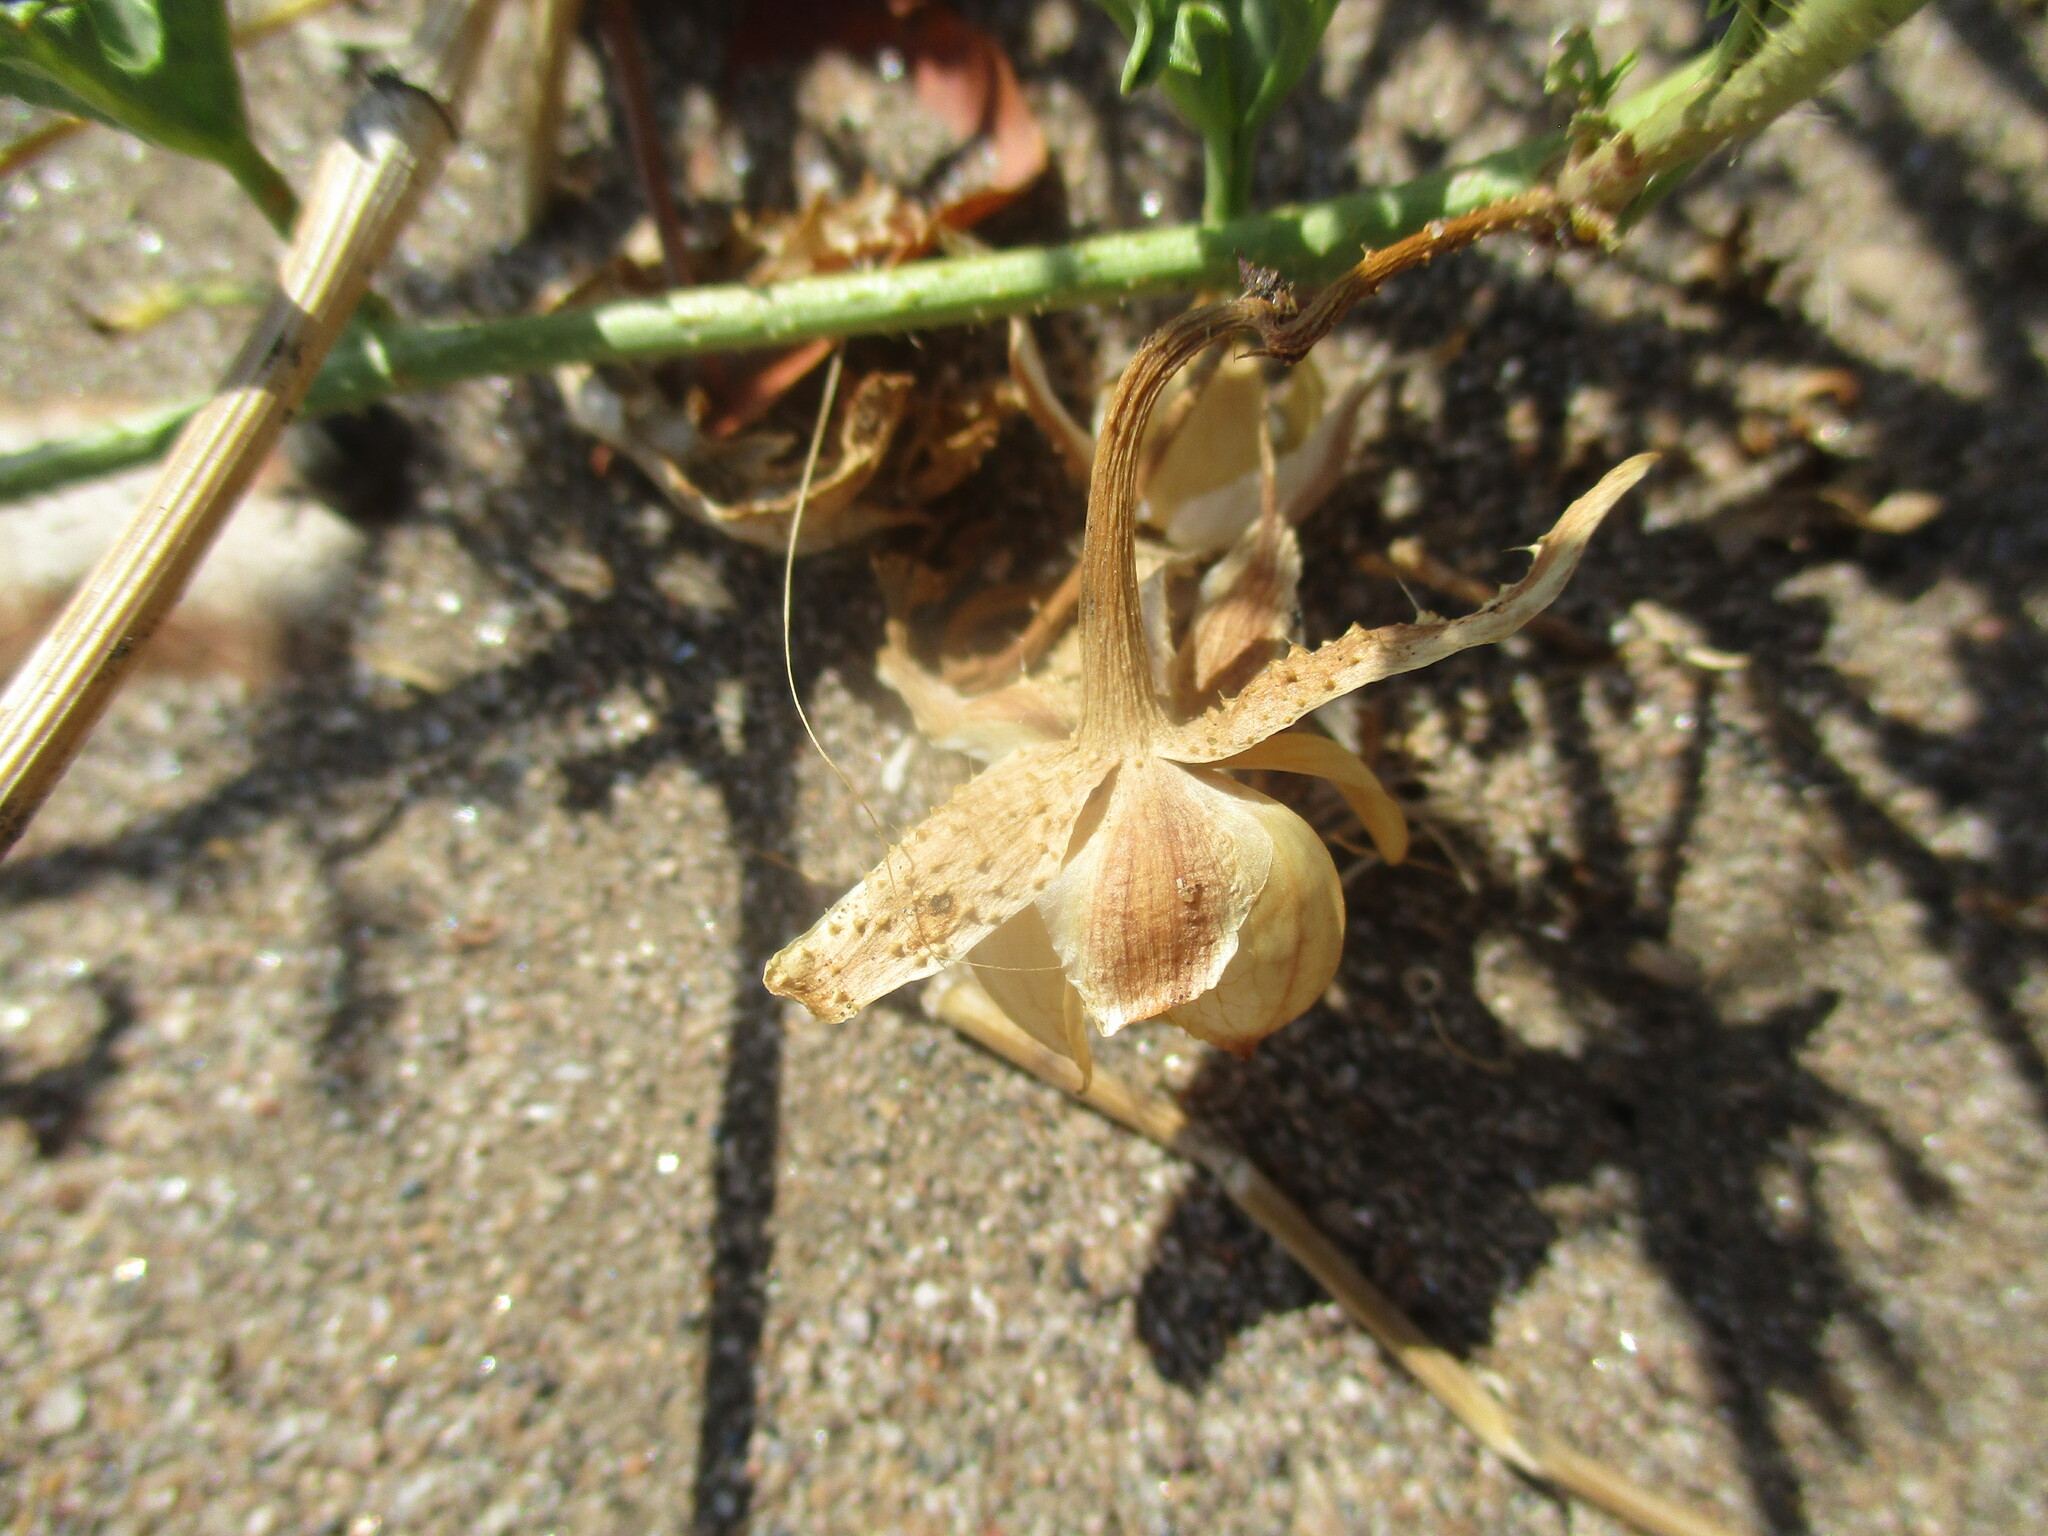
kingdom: Plantae
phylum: Tracheophyta
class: Magnoliopsida
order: Lamiales
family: Acanthaceae
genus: Pogonospermum
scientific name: Pogonospermum
